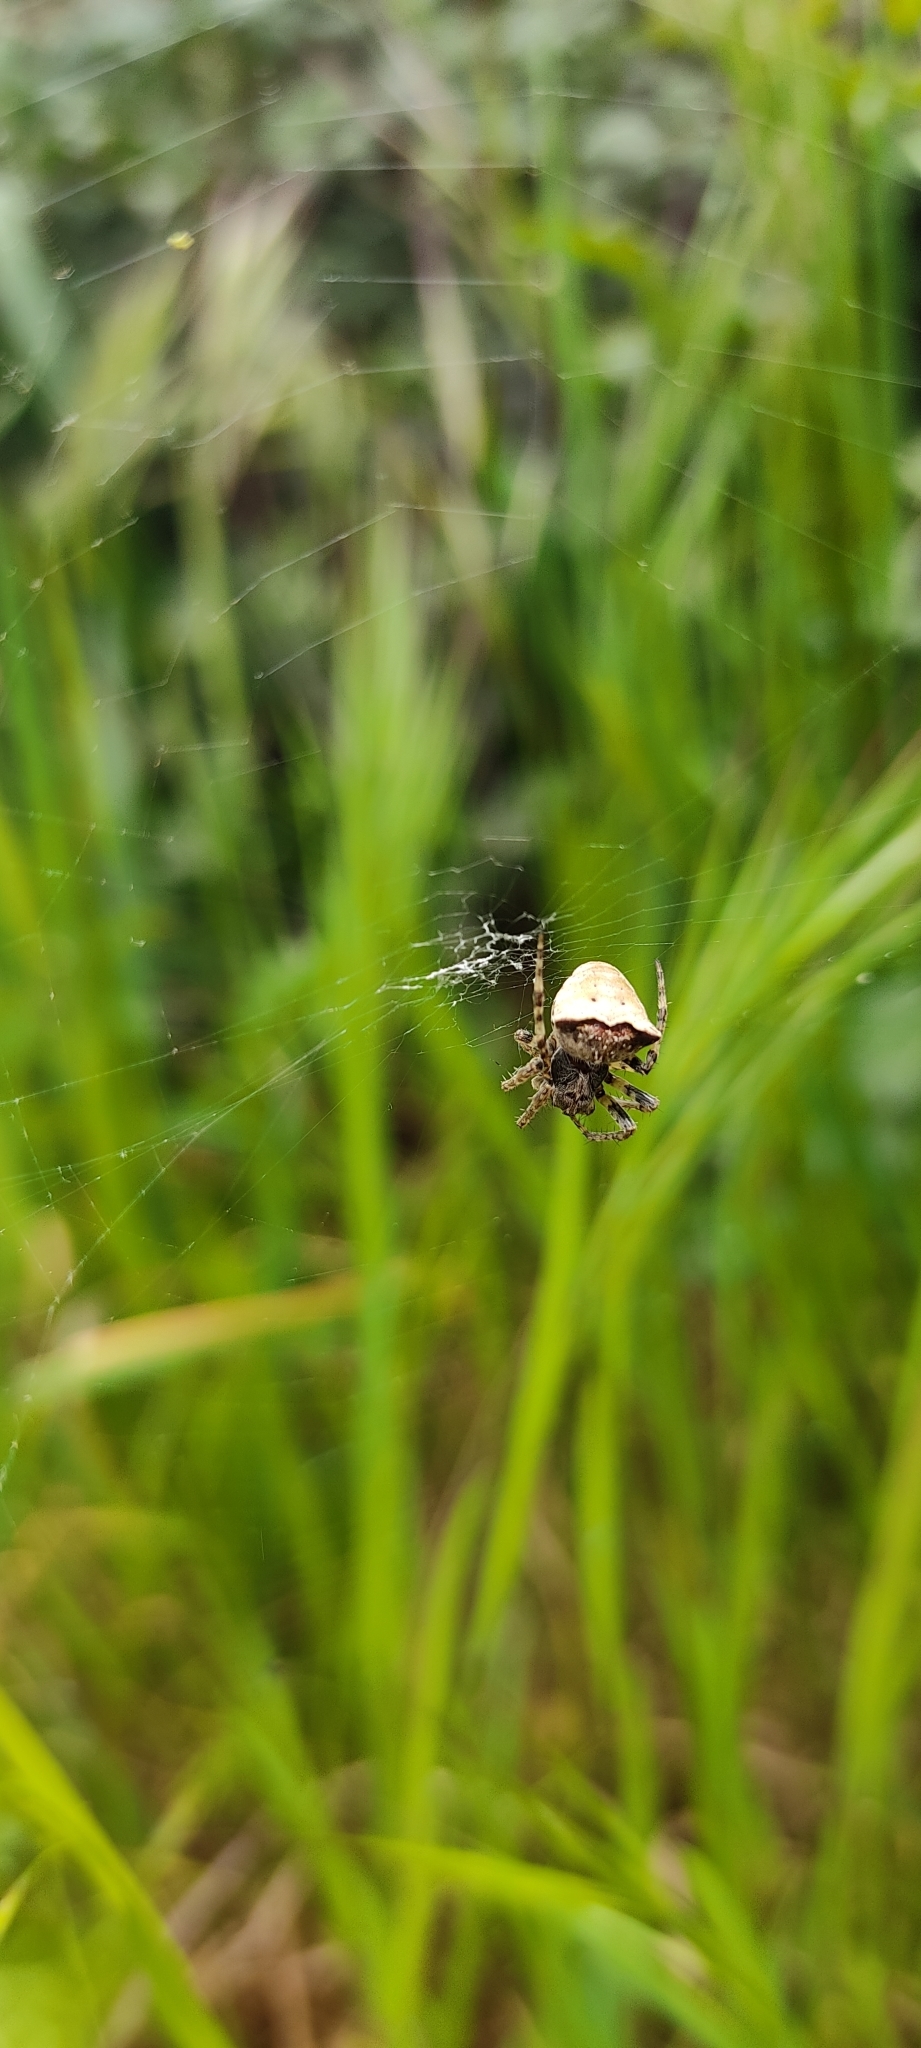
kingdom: Animalia
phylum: Arthropoda
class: Arachnida
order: Araneae
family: Araneidae
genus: Gibbaranea
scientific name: Gibbaranea bituberculata
